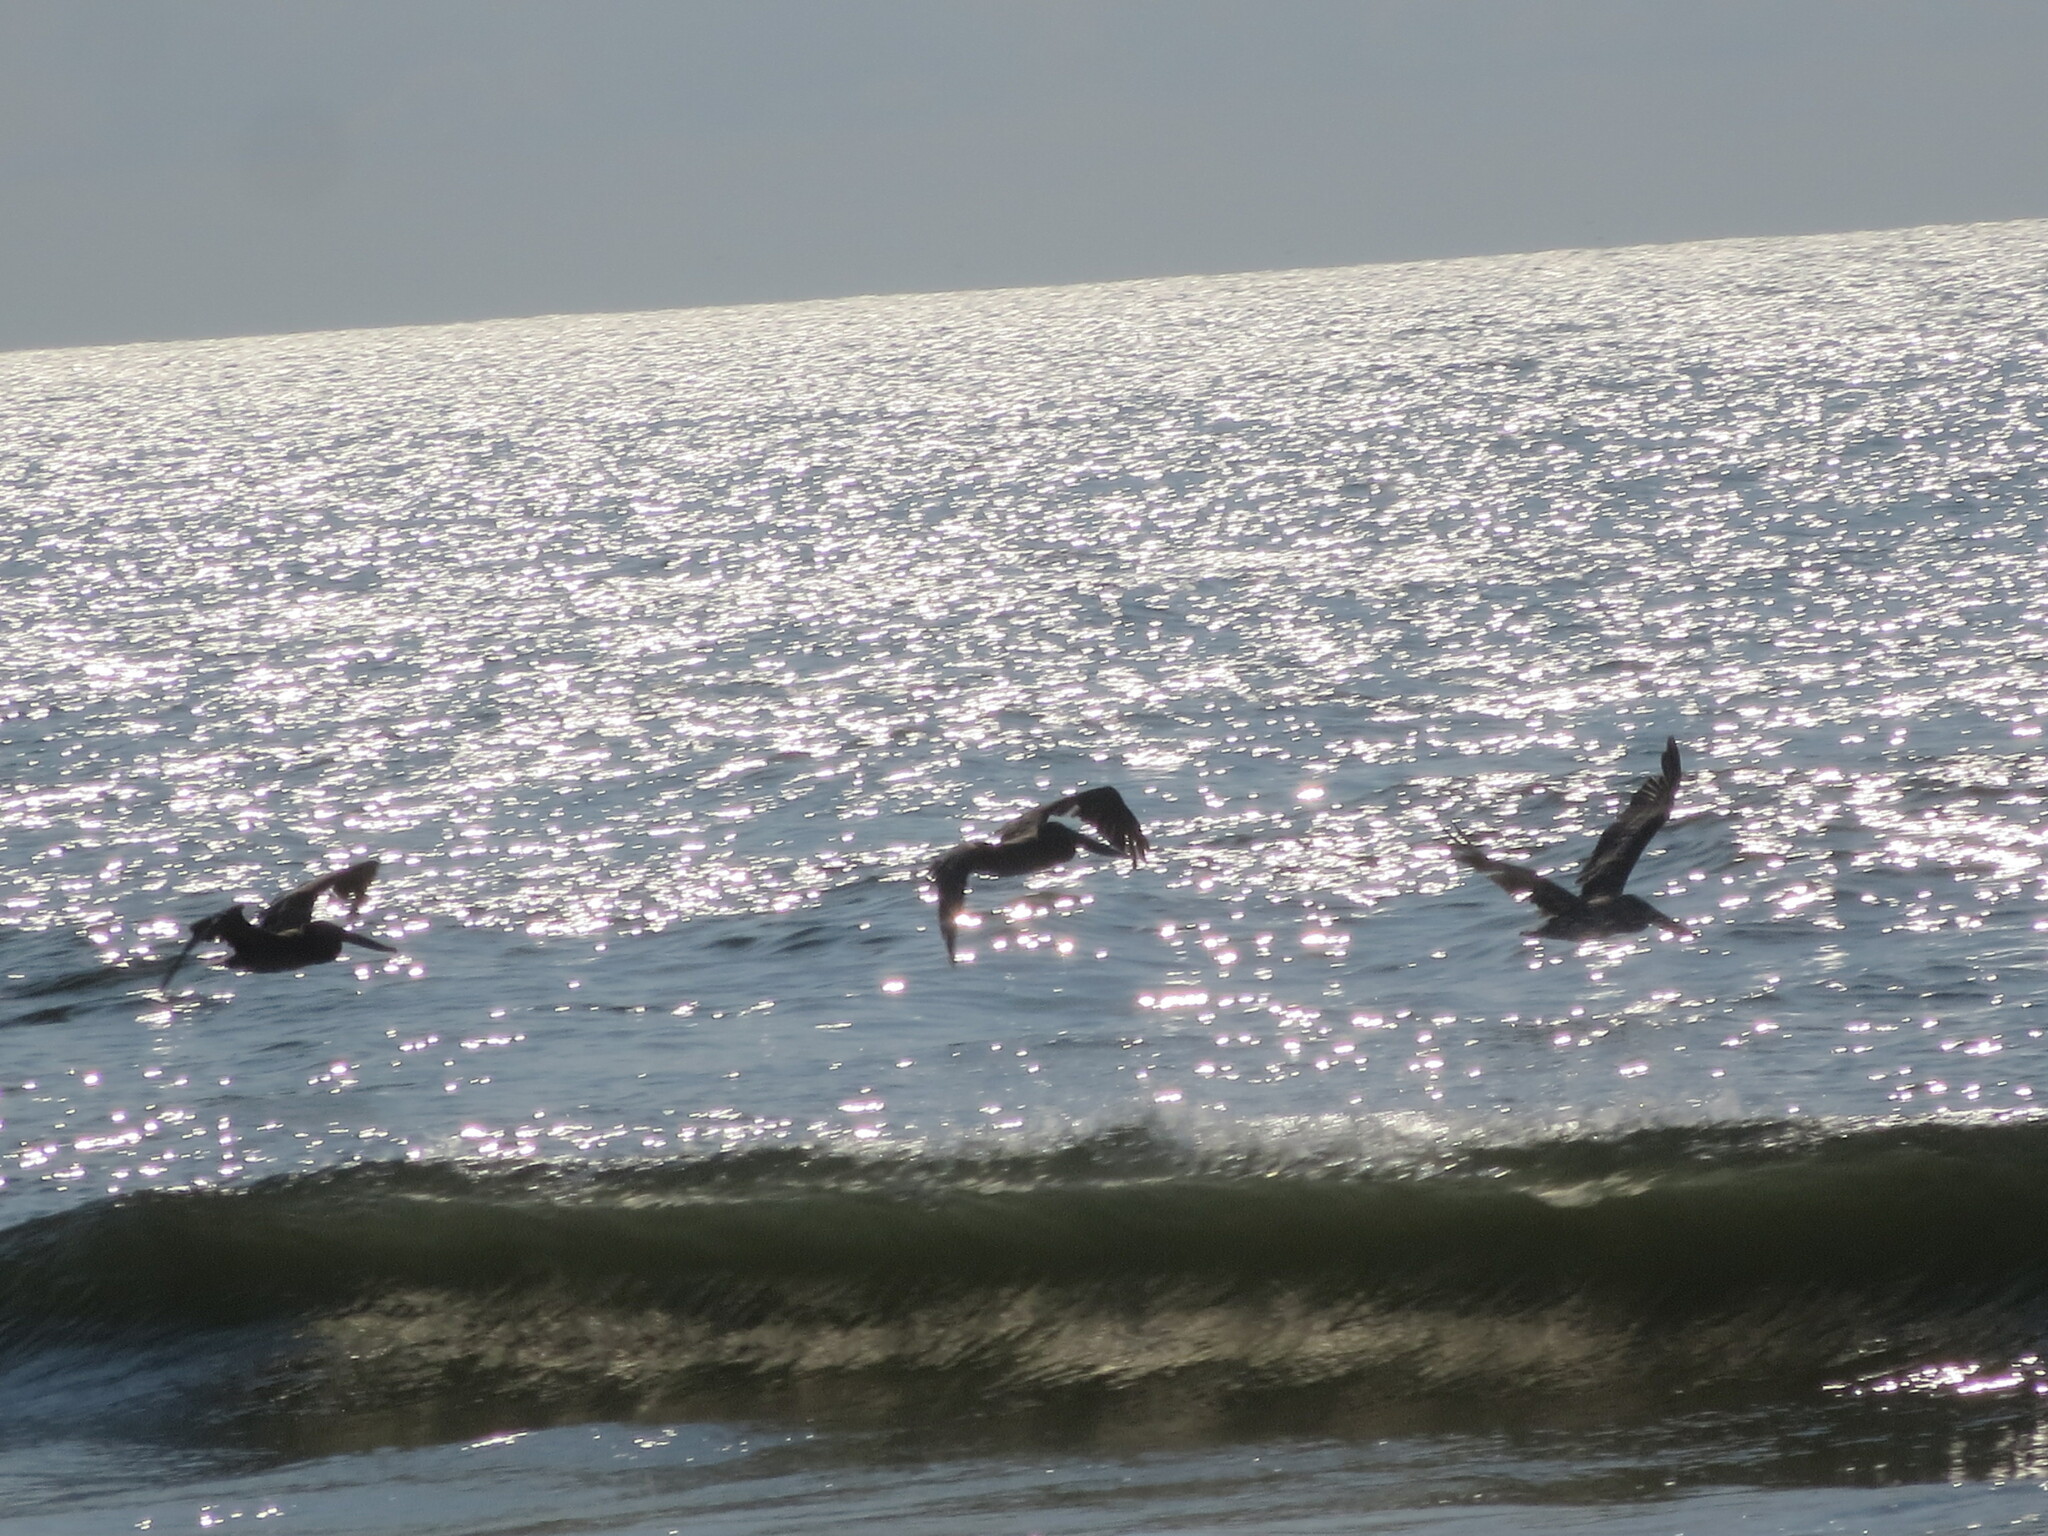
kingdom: Animalia
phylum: Chordata
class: Aves
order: Pelecaniformes
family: Pelecanidae
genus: Pelecanus
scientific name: Pelecanus occidentalis
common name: Brown pelican
